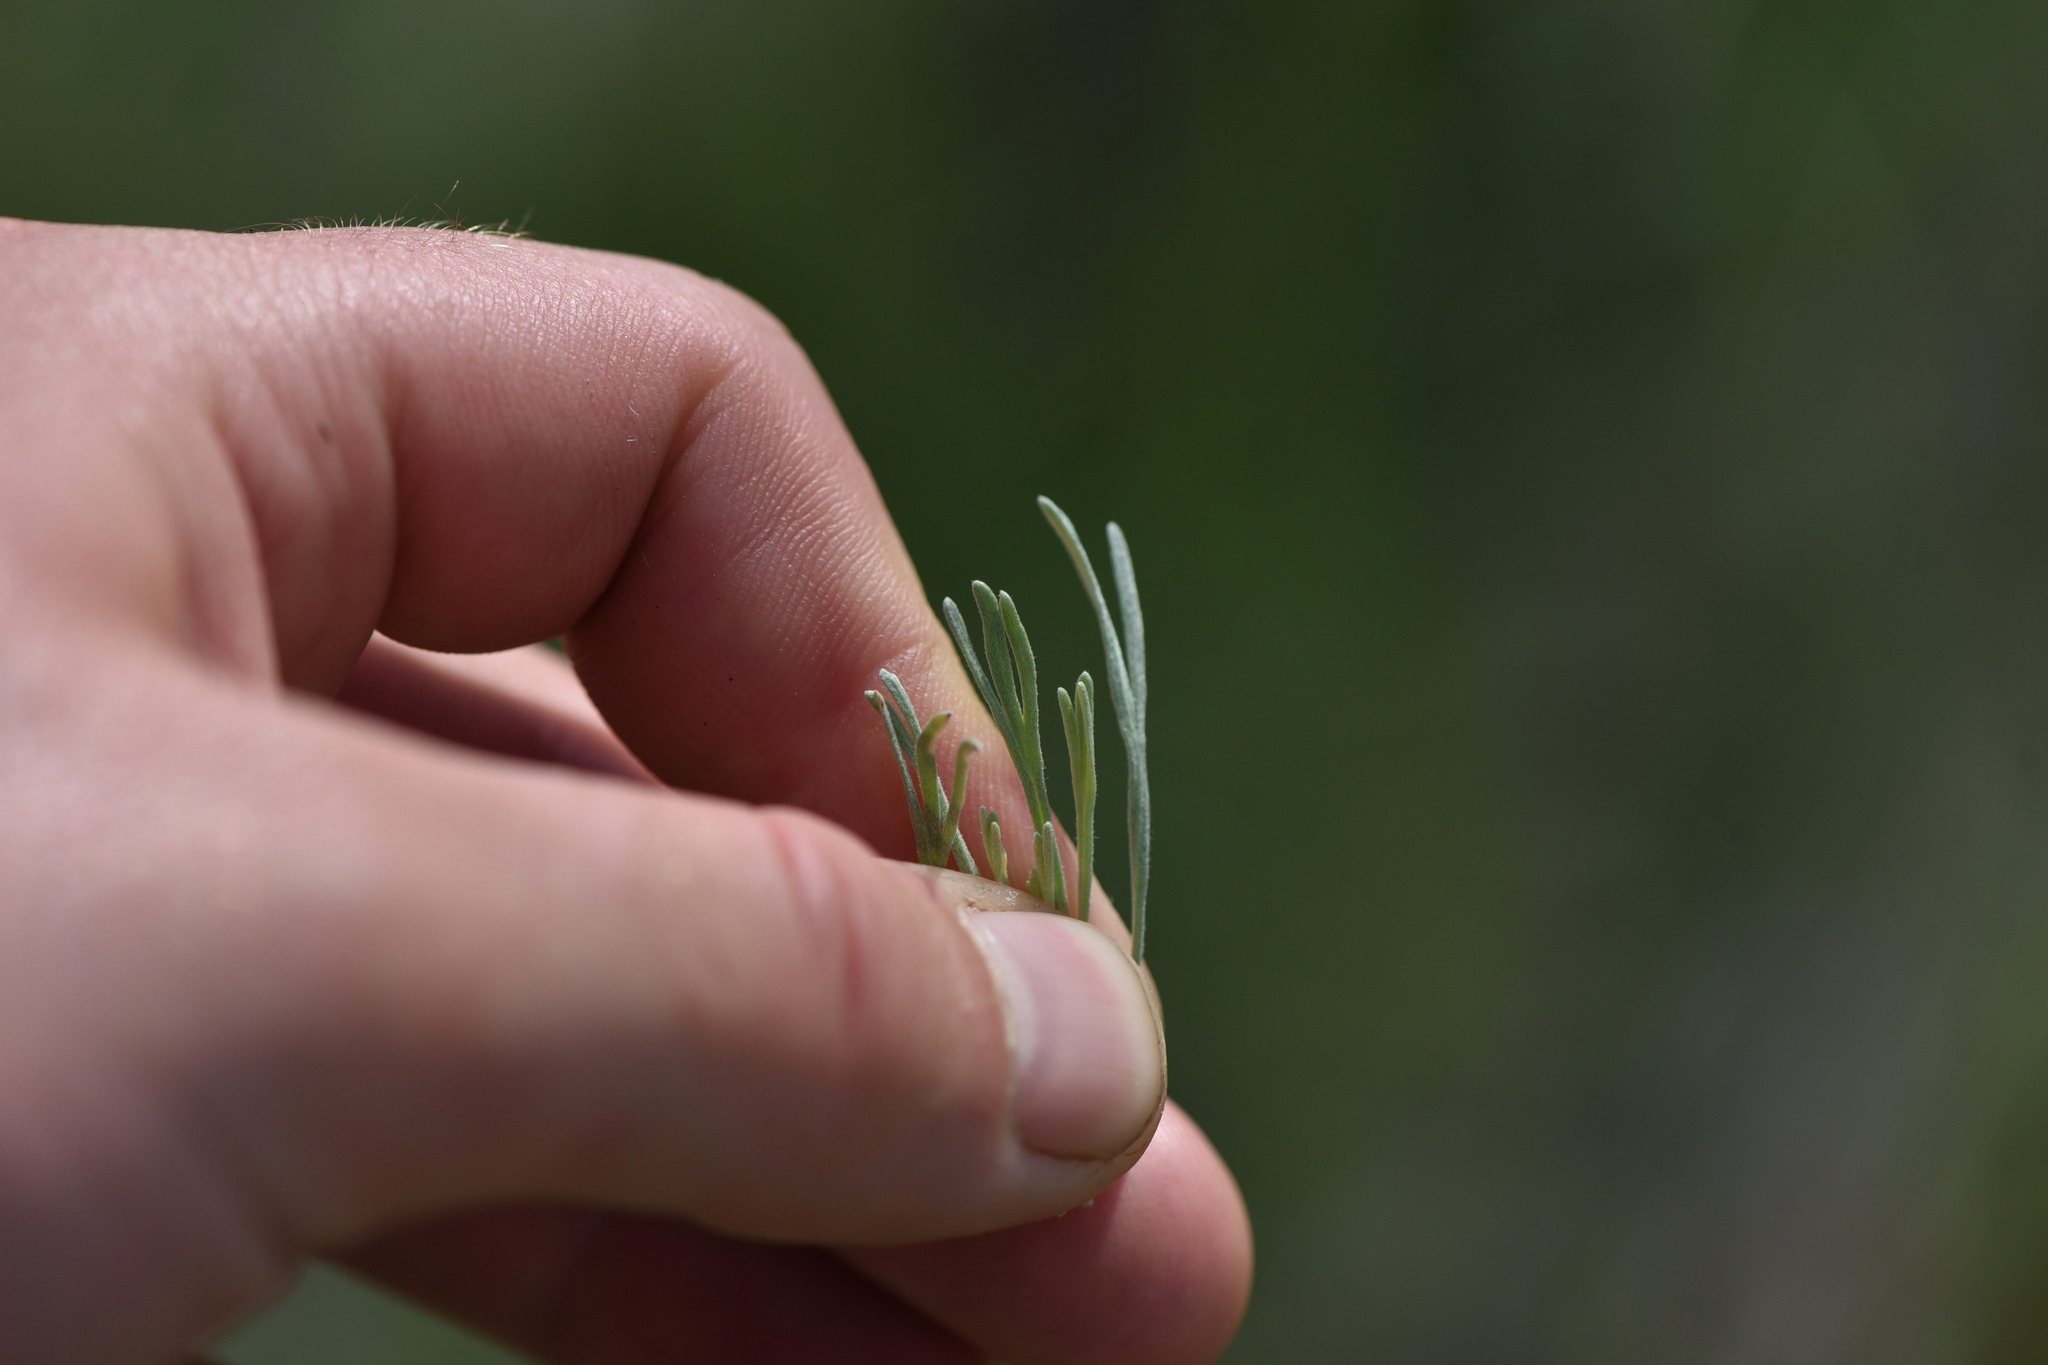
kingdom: Plantae
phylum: Tracheophyta
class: Magnoliopsida
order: Asterales
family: Asteraceae
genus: Artemisia
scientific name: Artemisia tripartita
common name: Three-tip sagebrush
